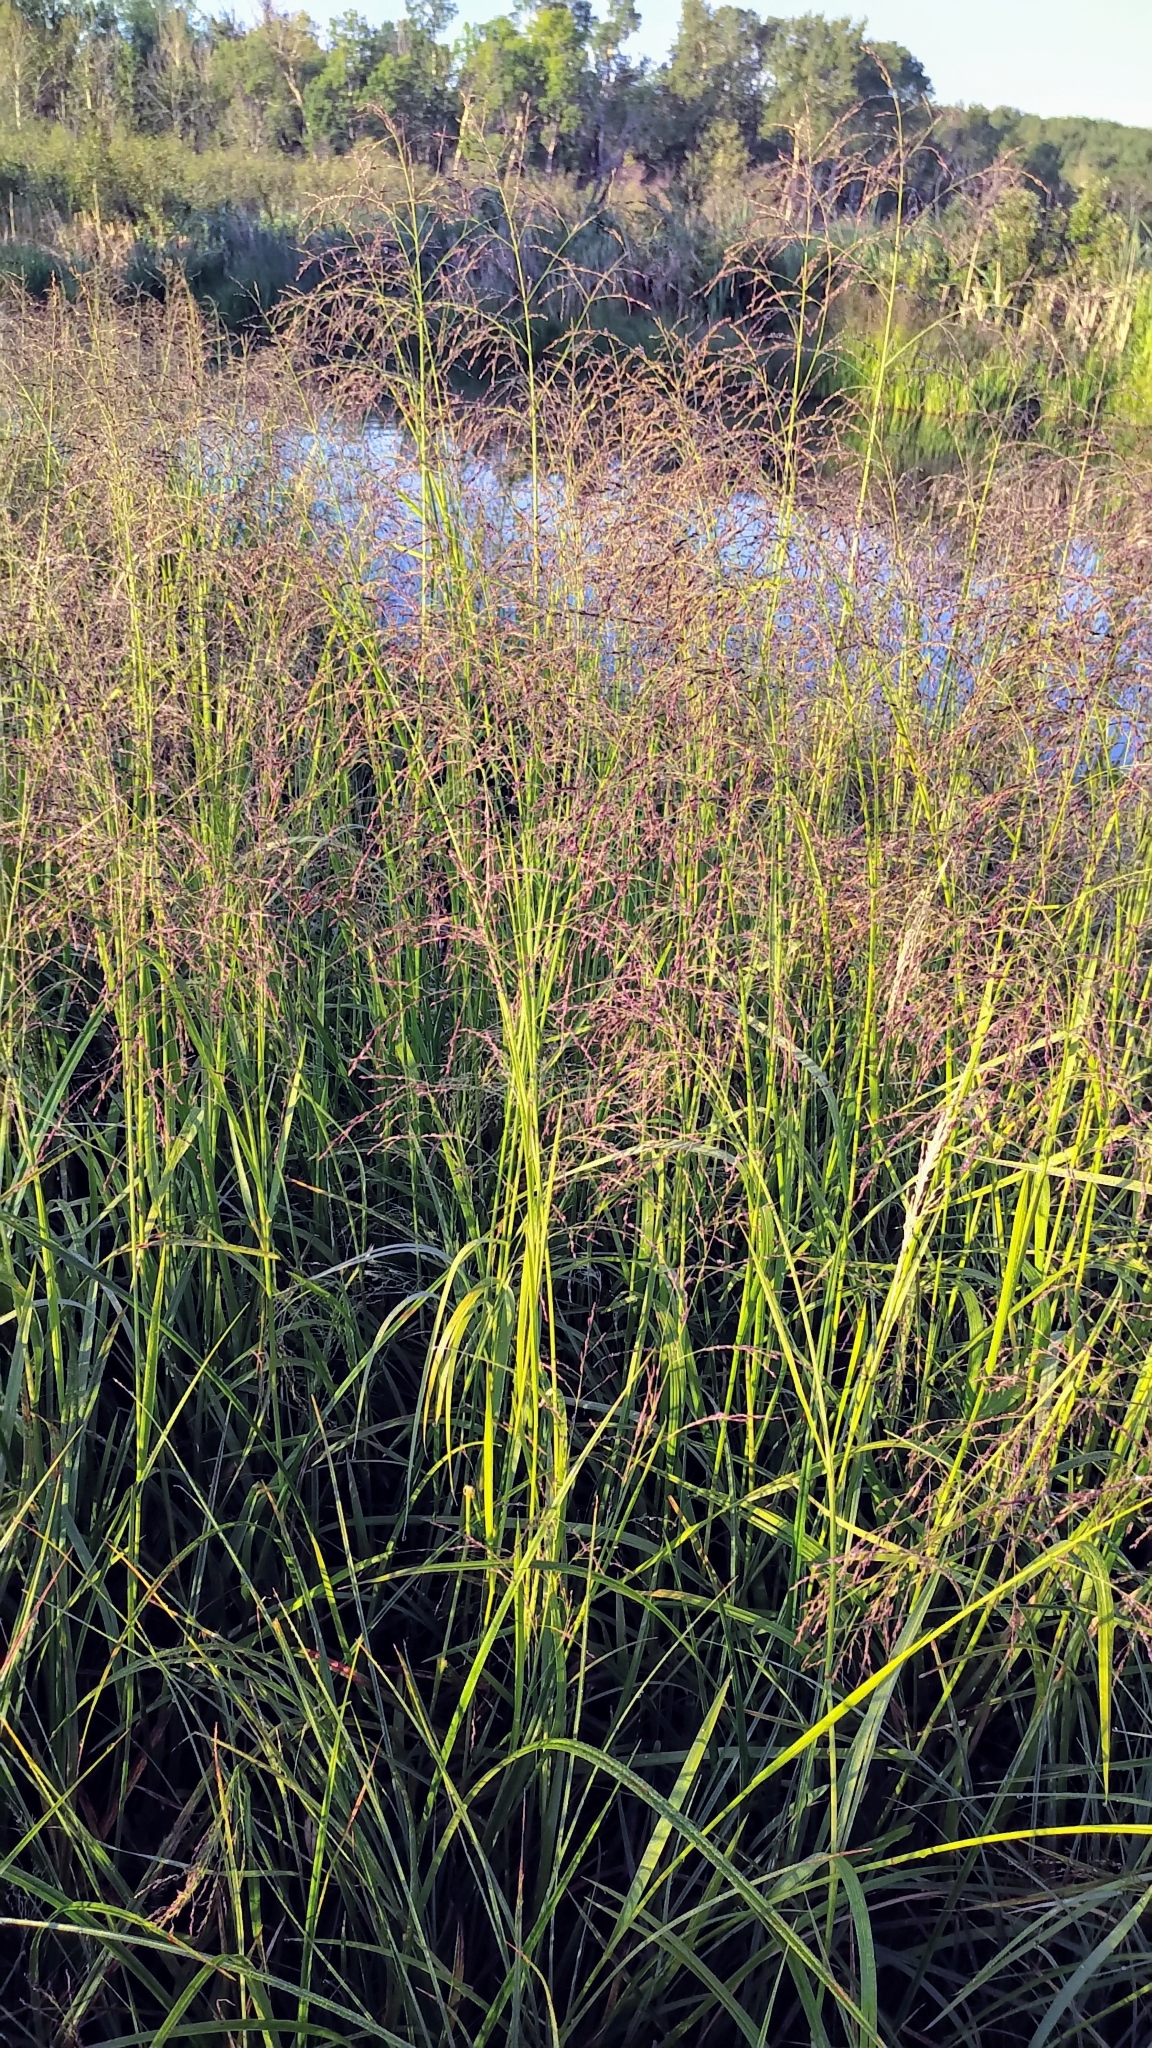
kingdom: Plantae
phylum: Tracheophyta
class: Liliopsida
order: Poales
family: Poaceae
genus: Glyceria
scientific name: Glyceria grandis
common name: American glyceria
